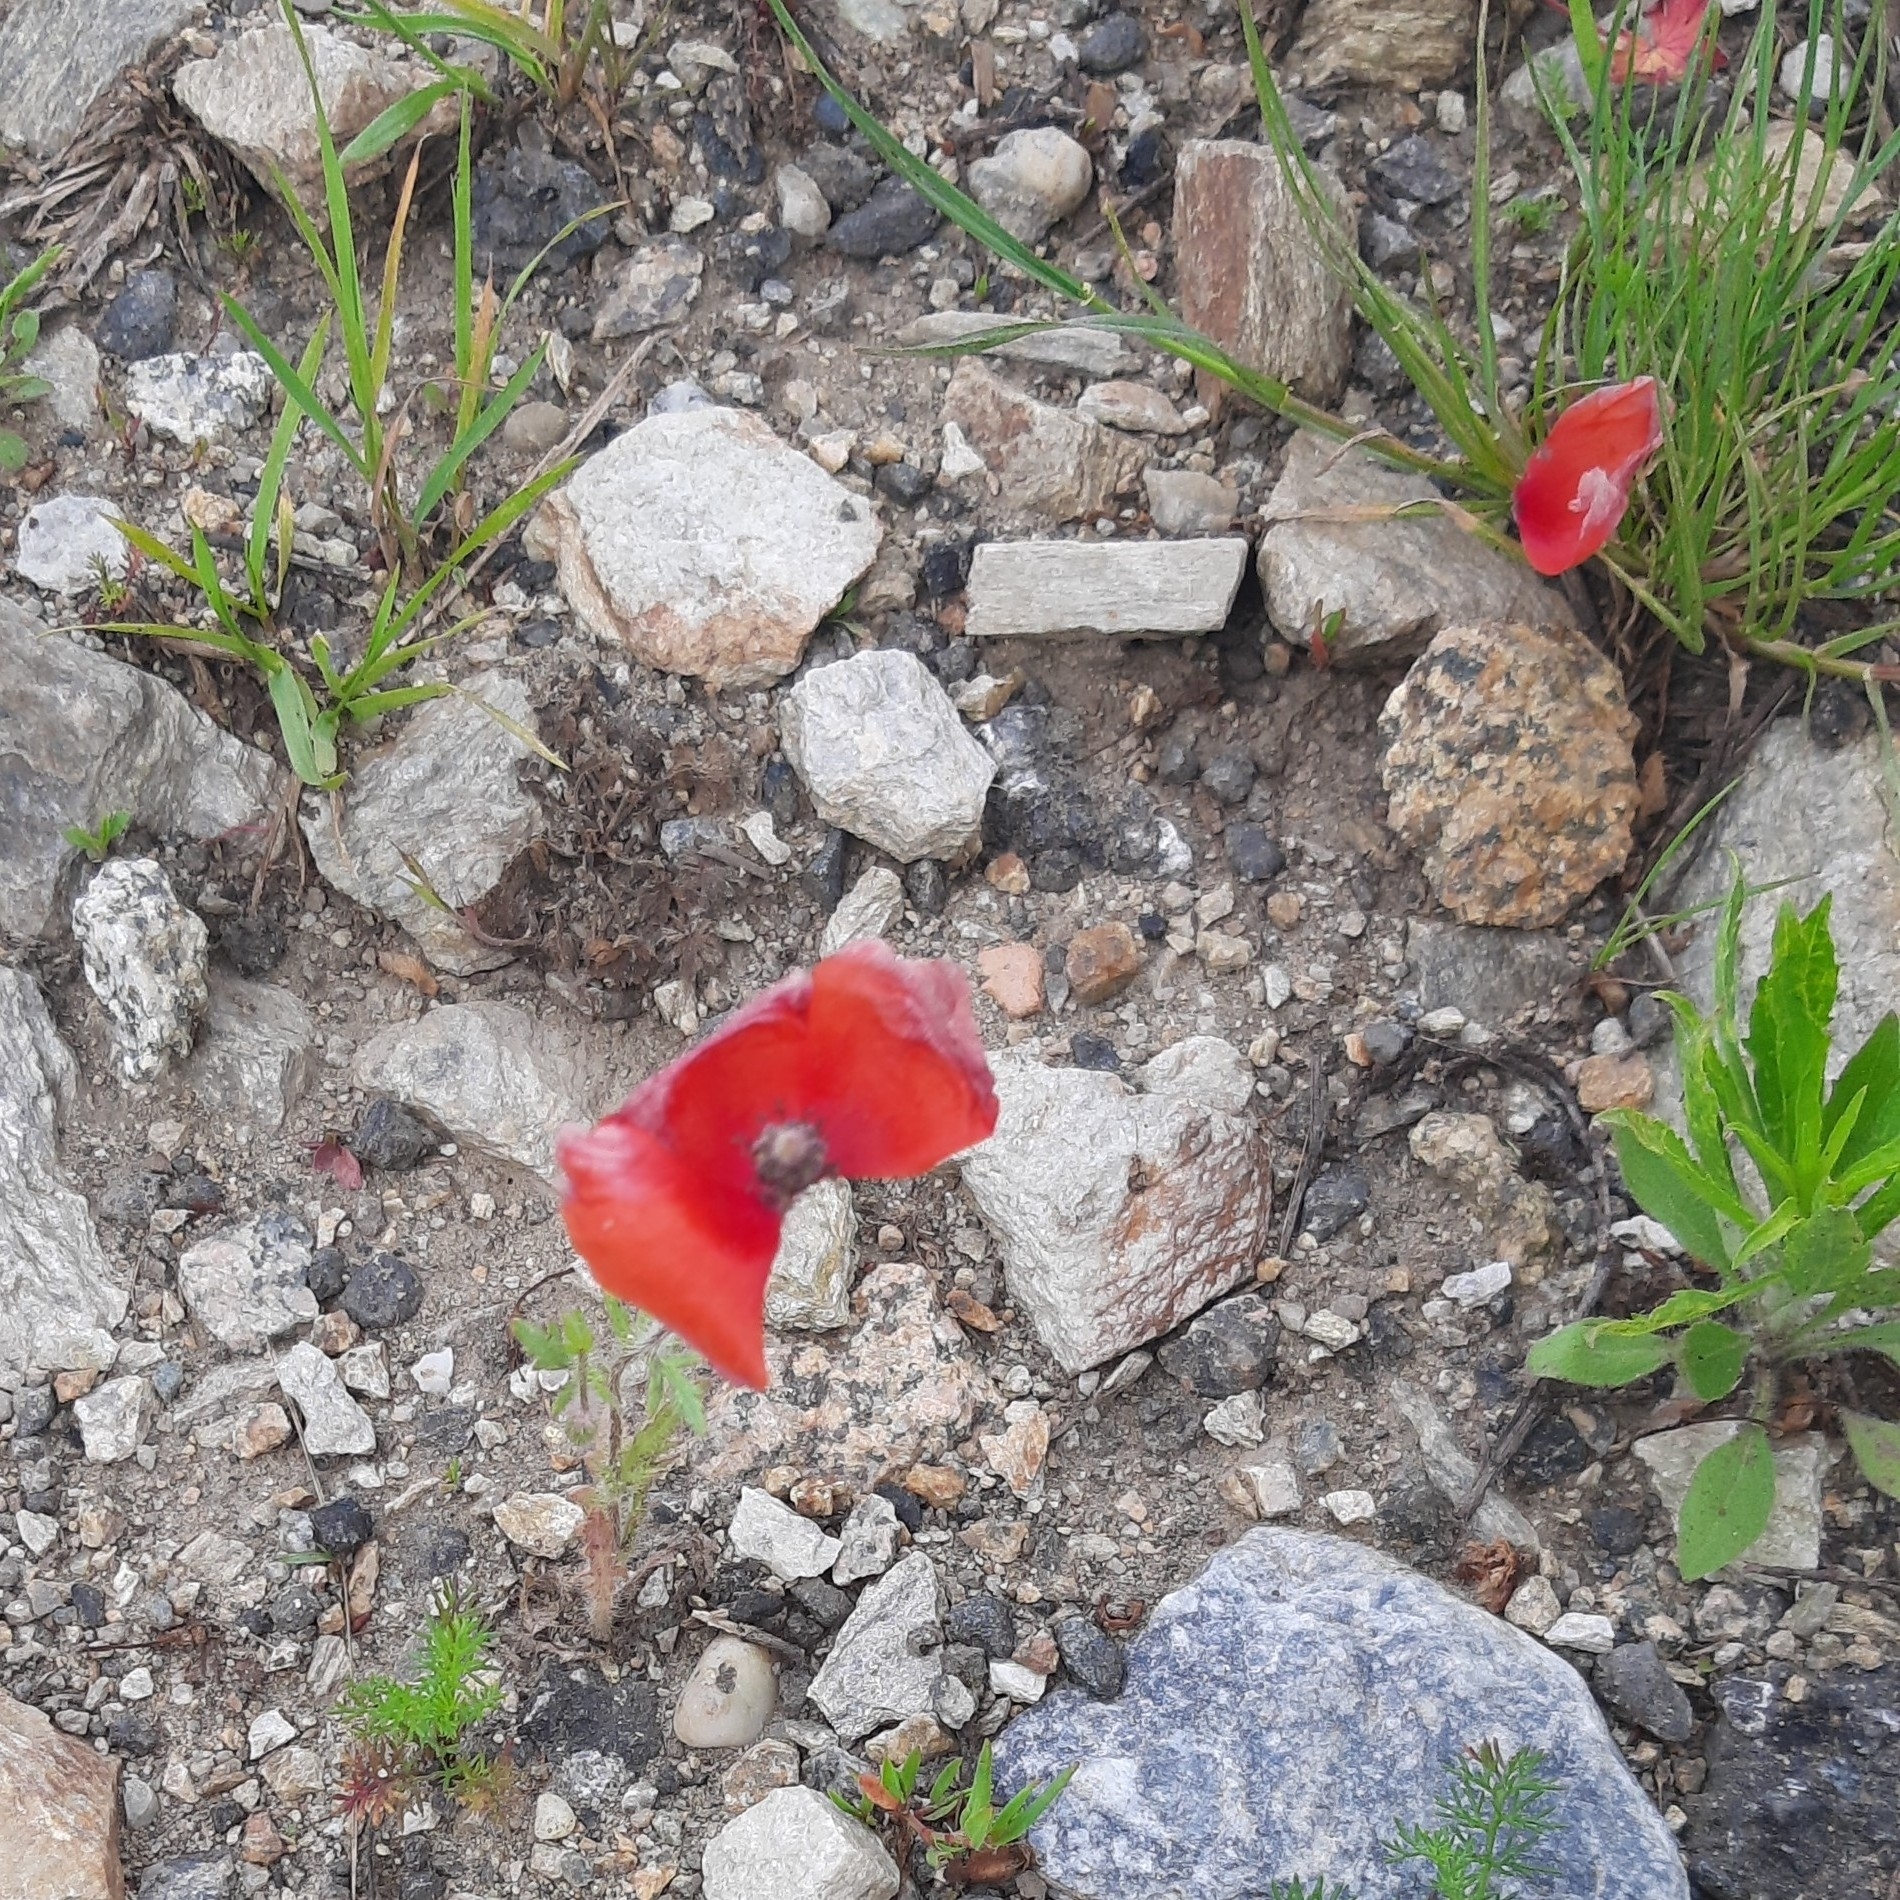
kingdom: Plantae
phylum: Tracheophyta
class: Magnoliopsida
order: Ranunculales
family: Papaveraceae
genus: Papaver
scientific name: Papaver rhoeas
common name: Corn poppy
